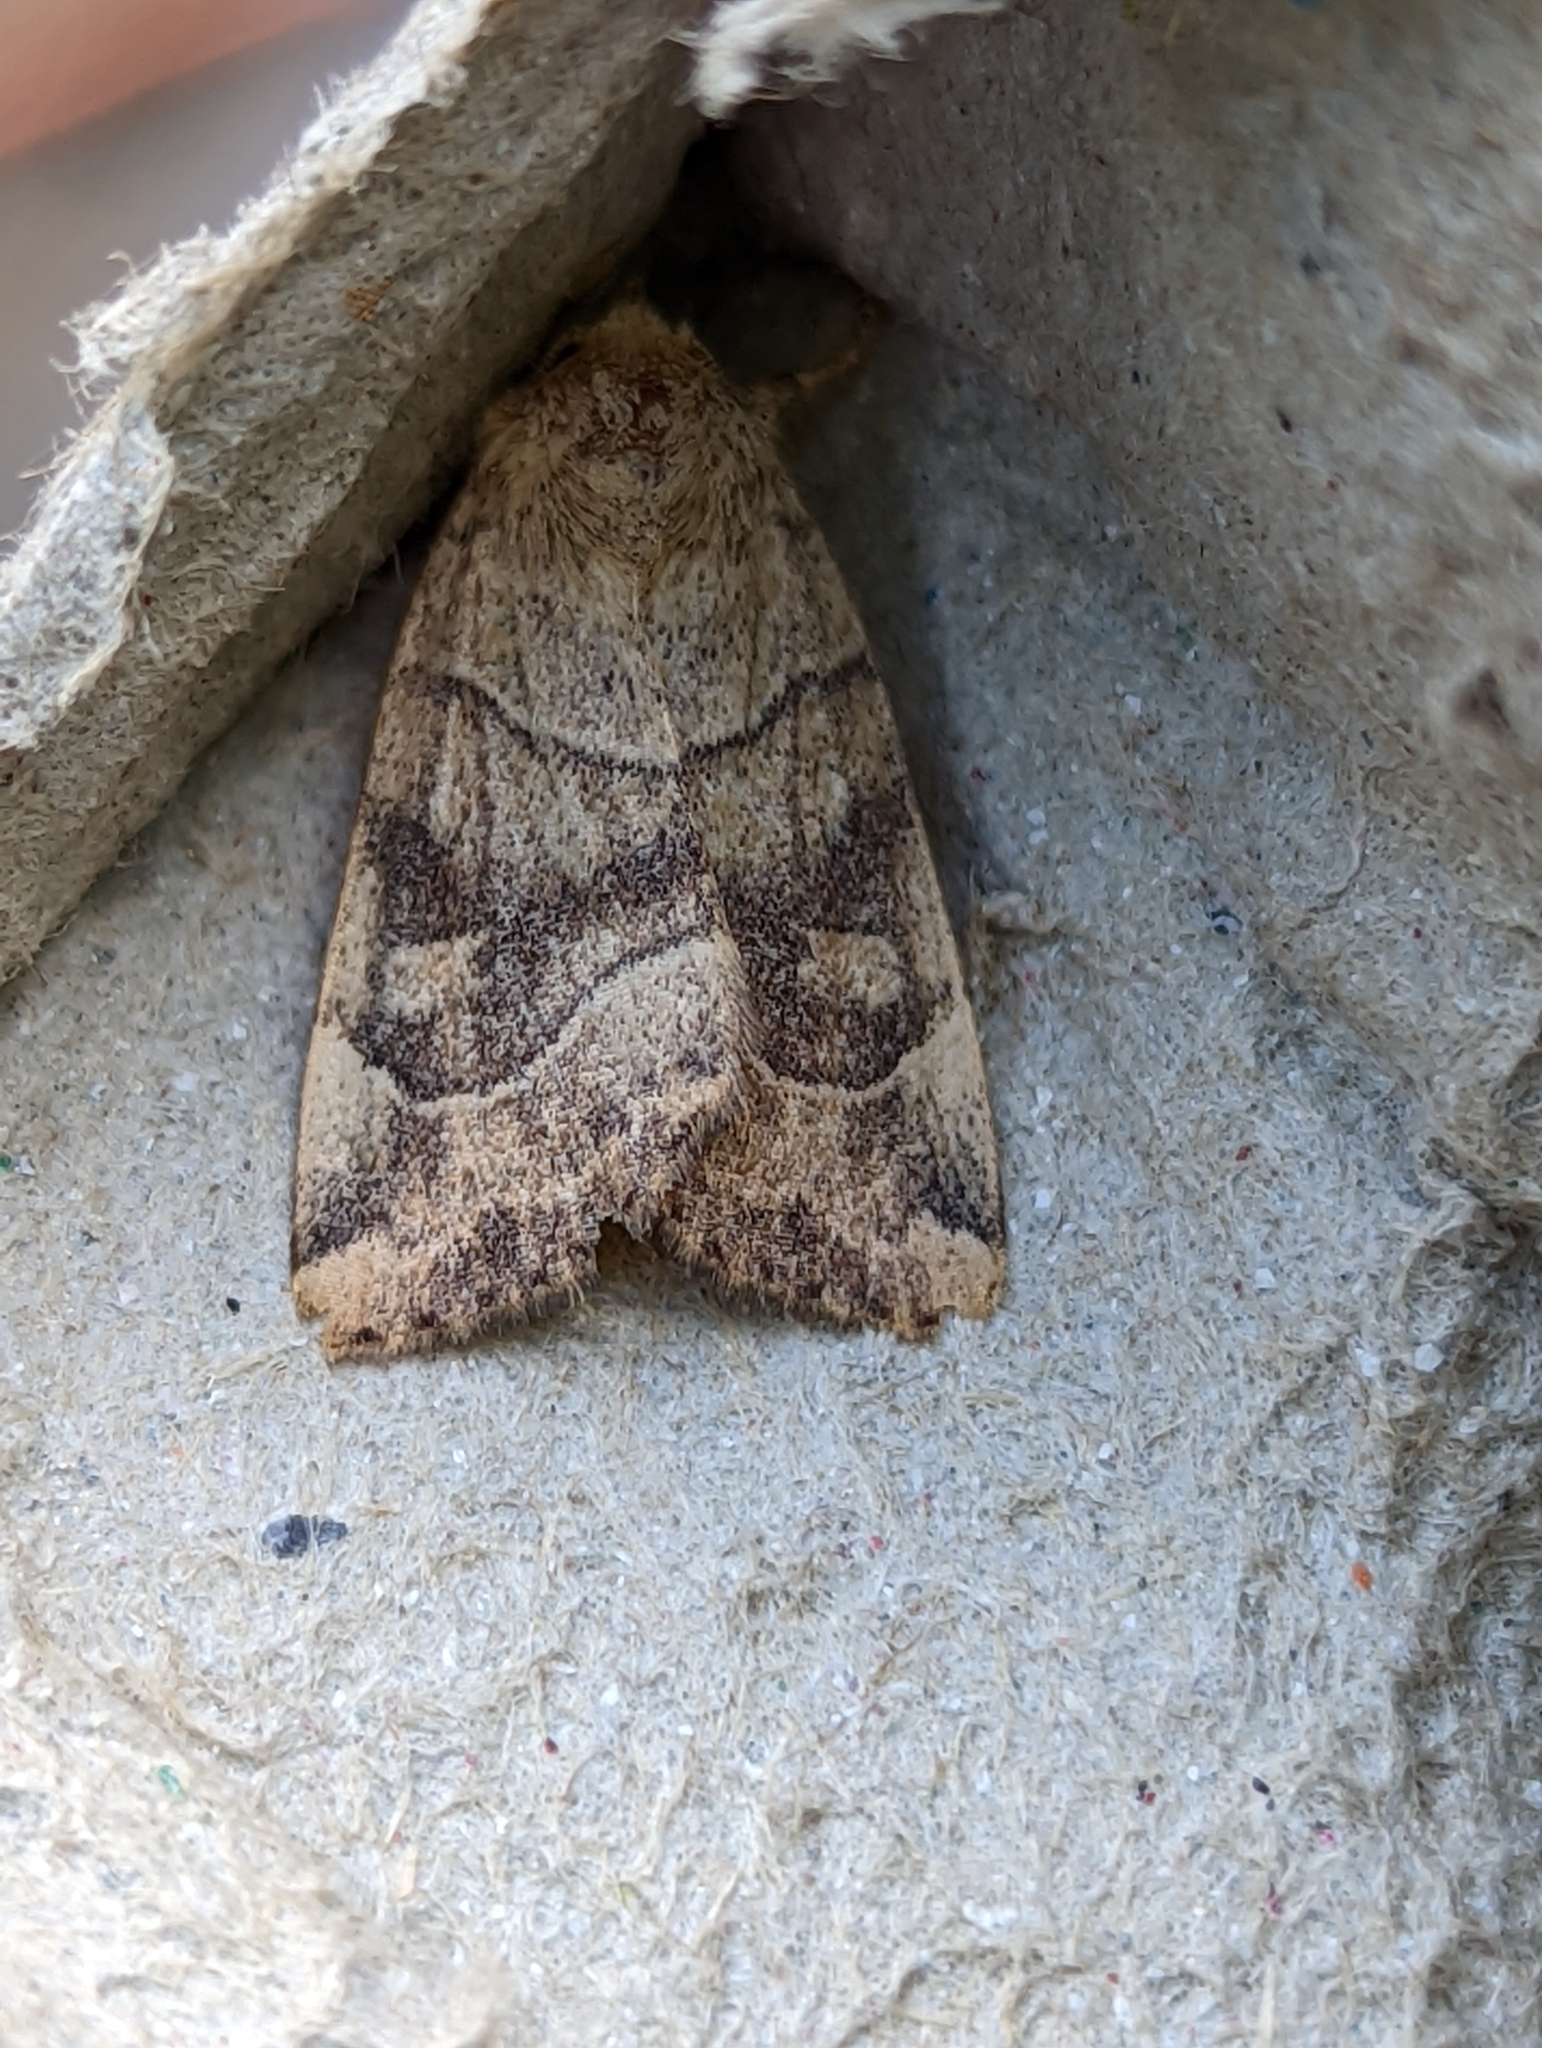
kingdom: Animalia
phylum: Arthropoda
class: Insecta
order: Lepidoptera
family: Noctuidae
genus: Cosmia
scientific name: Cosmia trapezina
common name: Dun-bar
